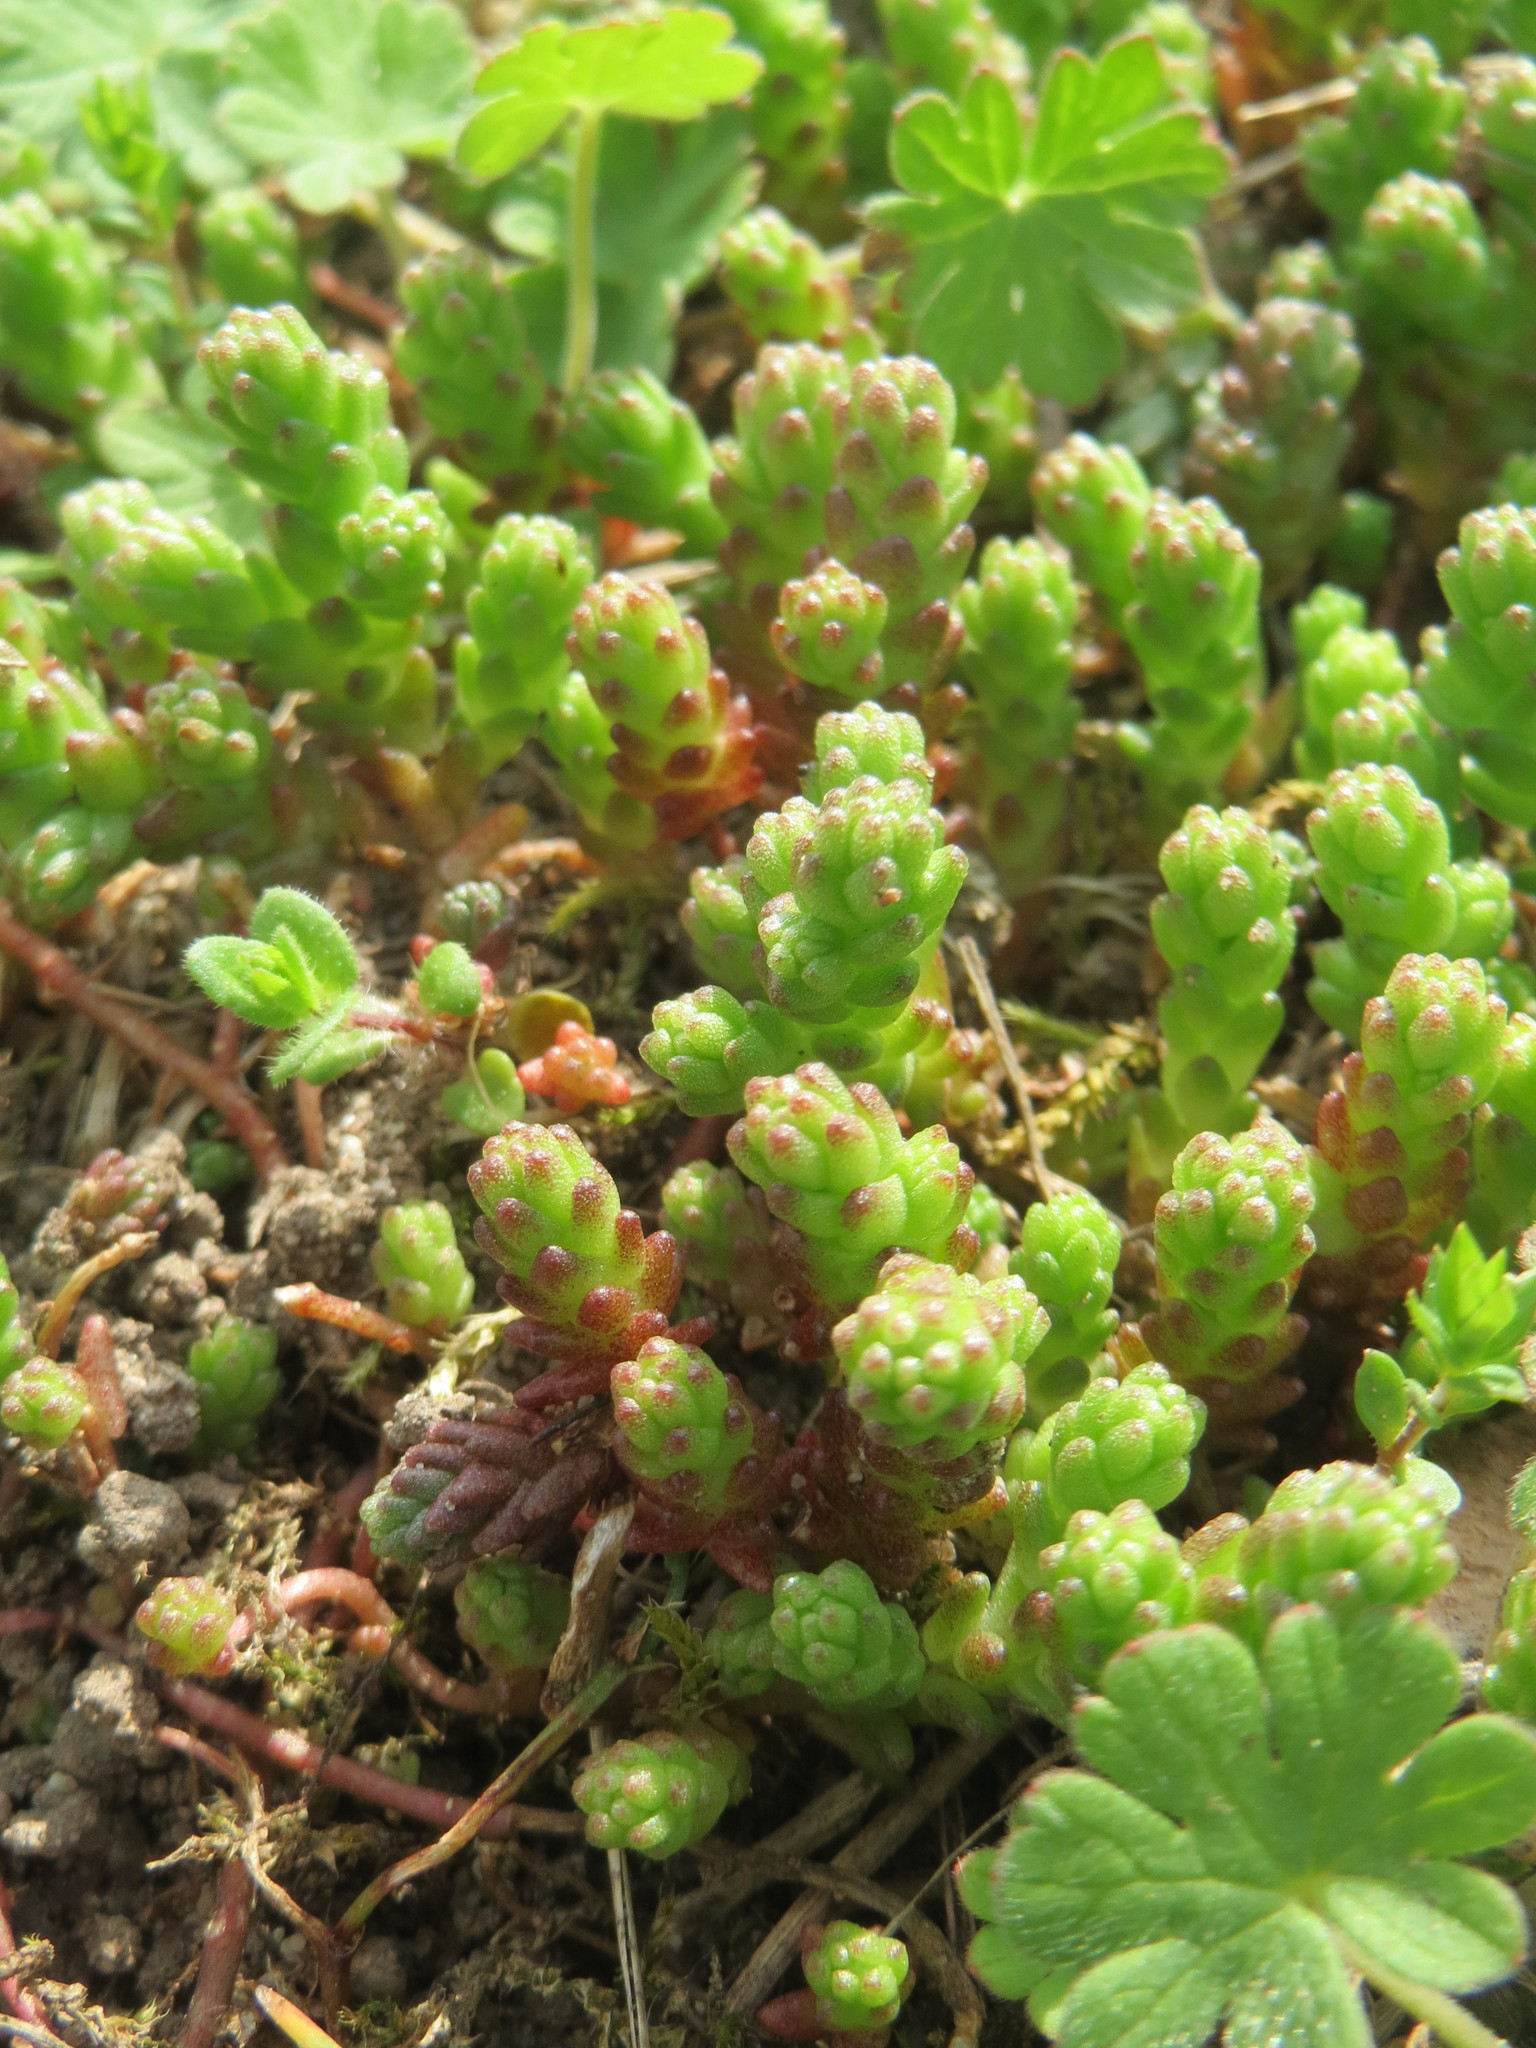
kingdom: Plantae
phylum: Tracheophyta
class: Magnoliopsida
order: Saxifragales
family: Crassulaceae
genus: Sedum
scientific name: Sedum acre
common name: Biting stonecrop
